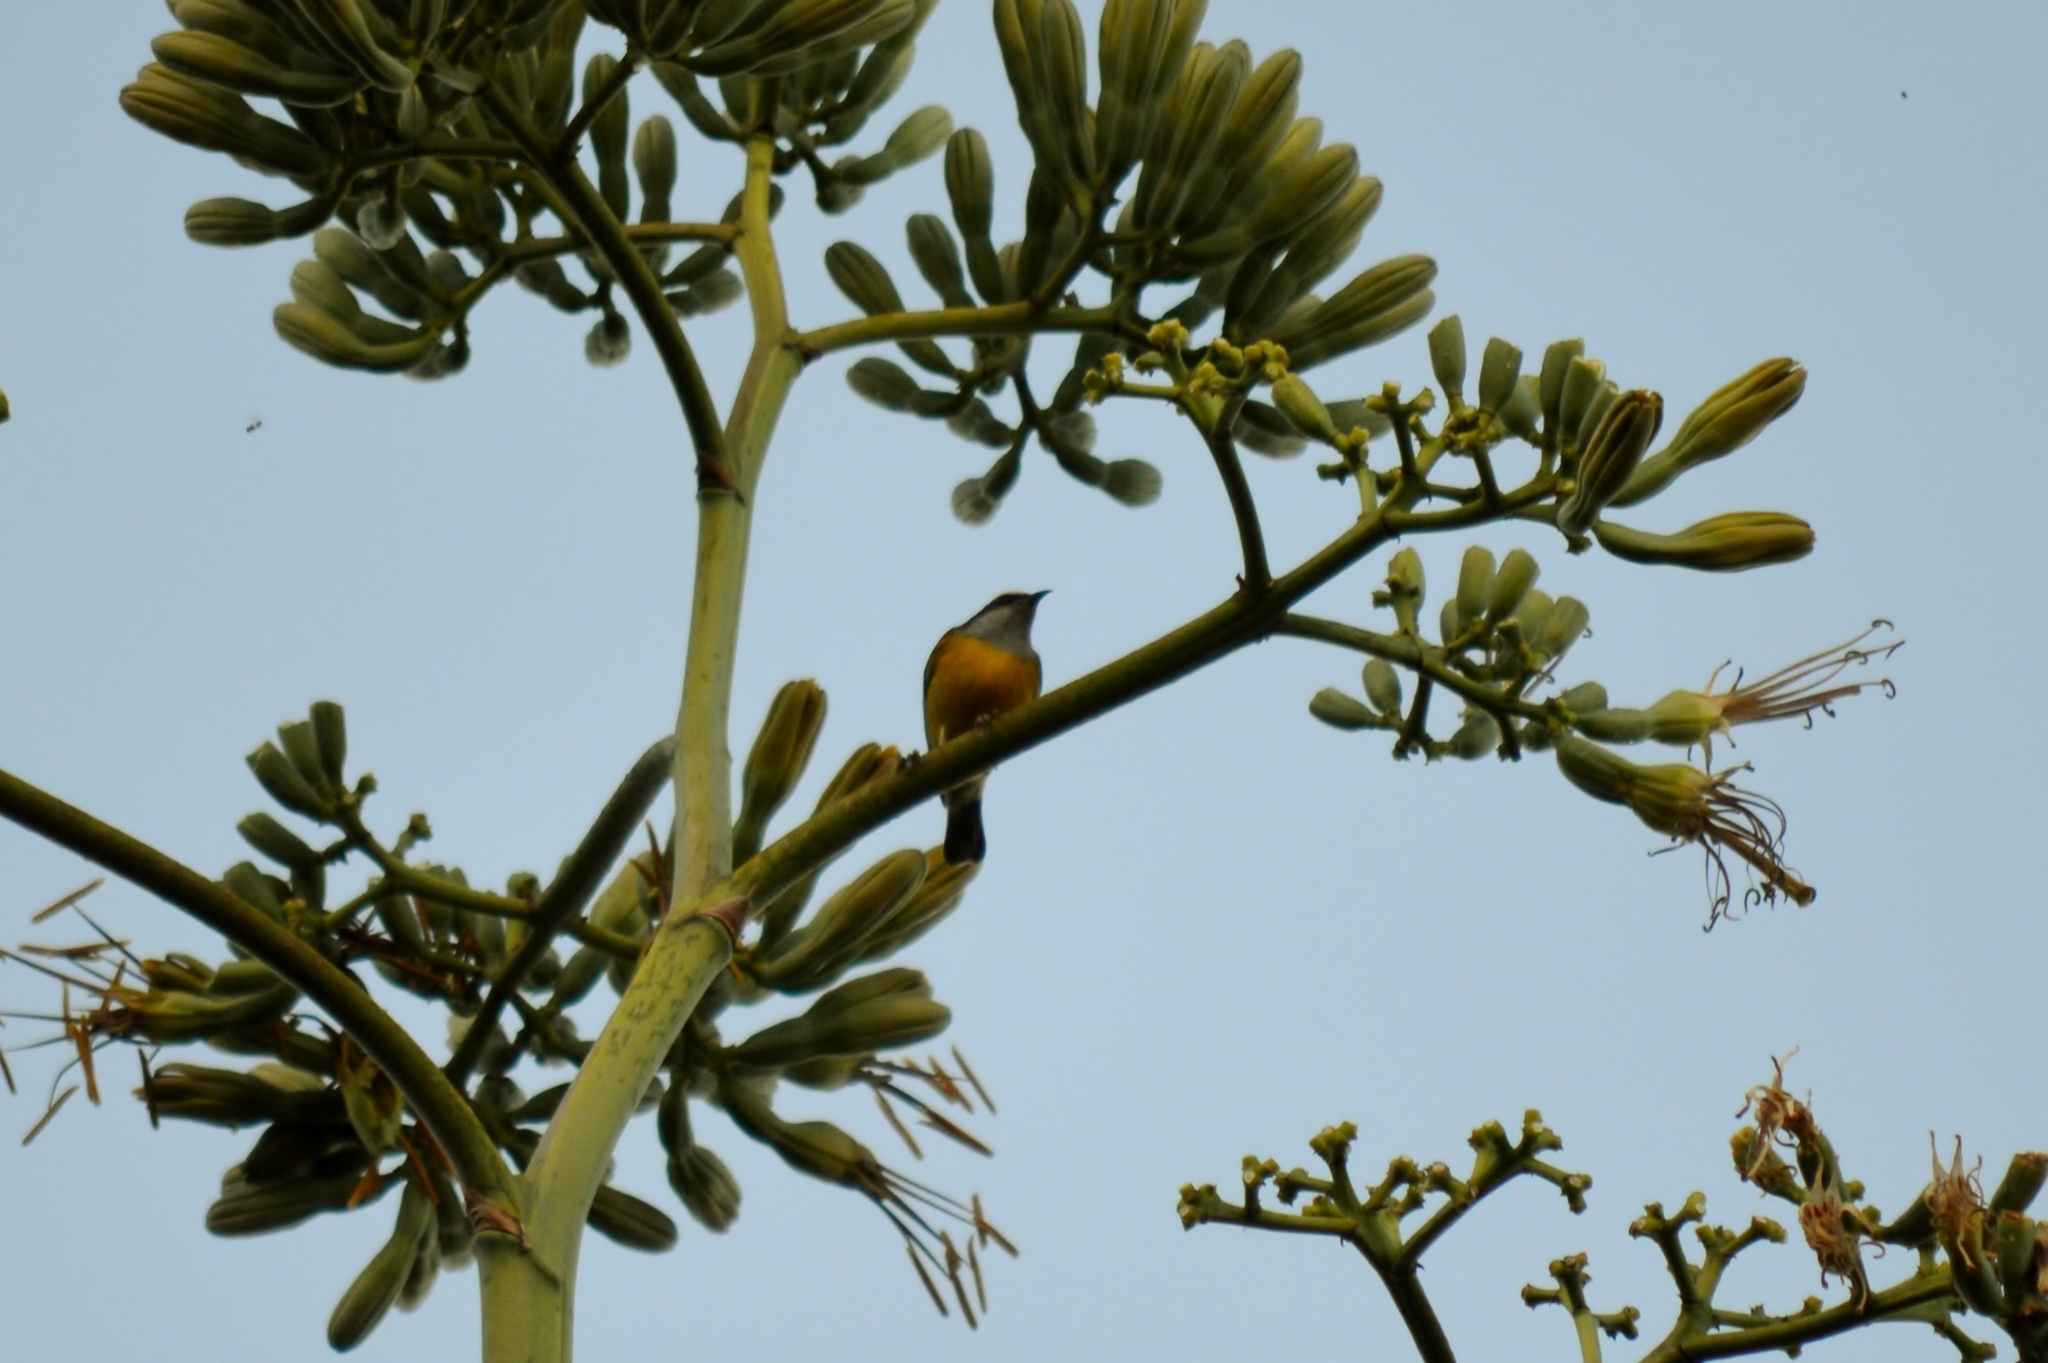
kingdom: Animalia
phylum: Chordata
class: Aves
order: Passeriformes
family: Thraupidae
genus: Coereba
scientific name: Coereba flaveola
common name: Bananaquit
